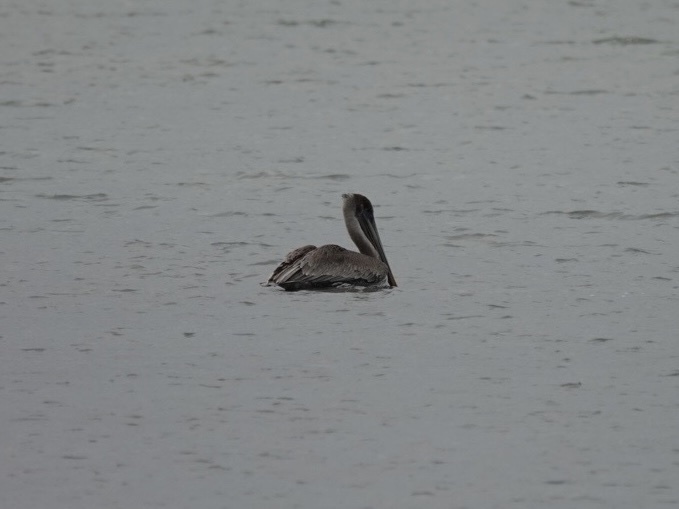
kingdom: Animalia
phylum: Chordata
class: Aves
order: Pelecaniformes
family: Pelecanidae
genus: Pelecanus
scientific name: Pelecanus occidentalis
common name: Brown pelican
